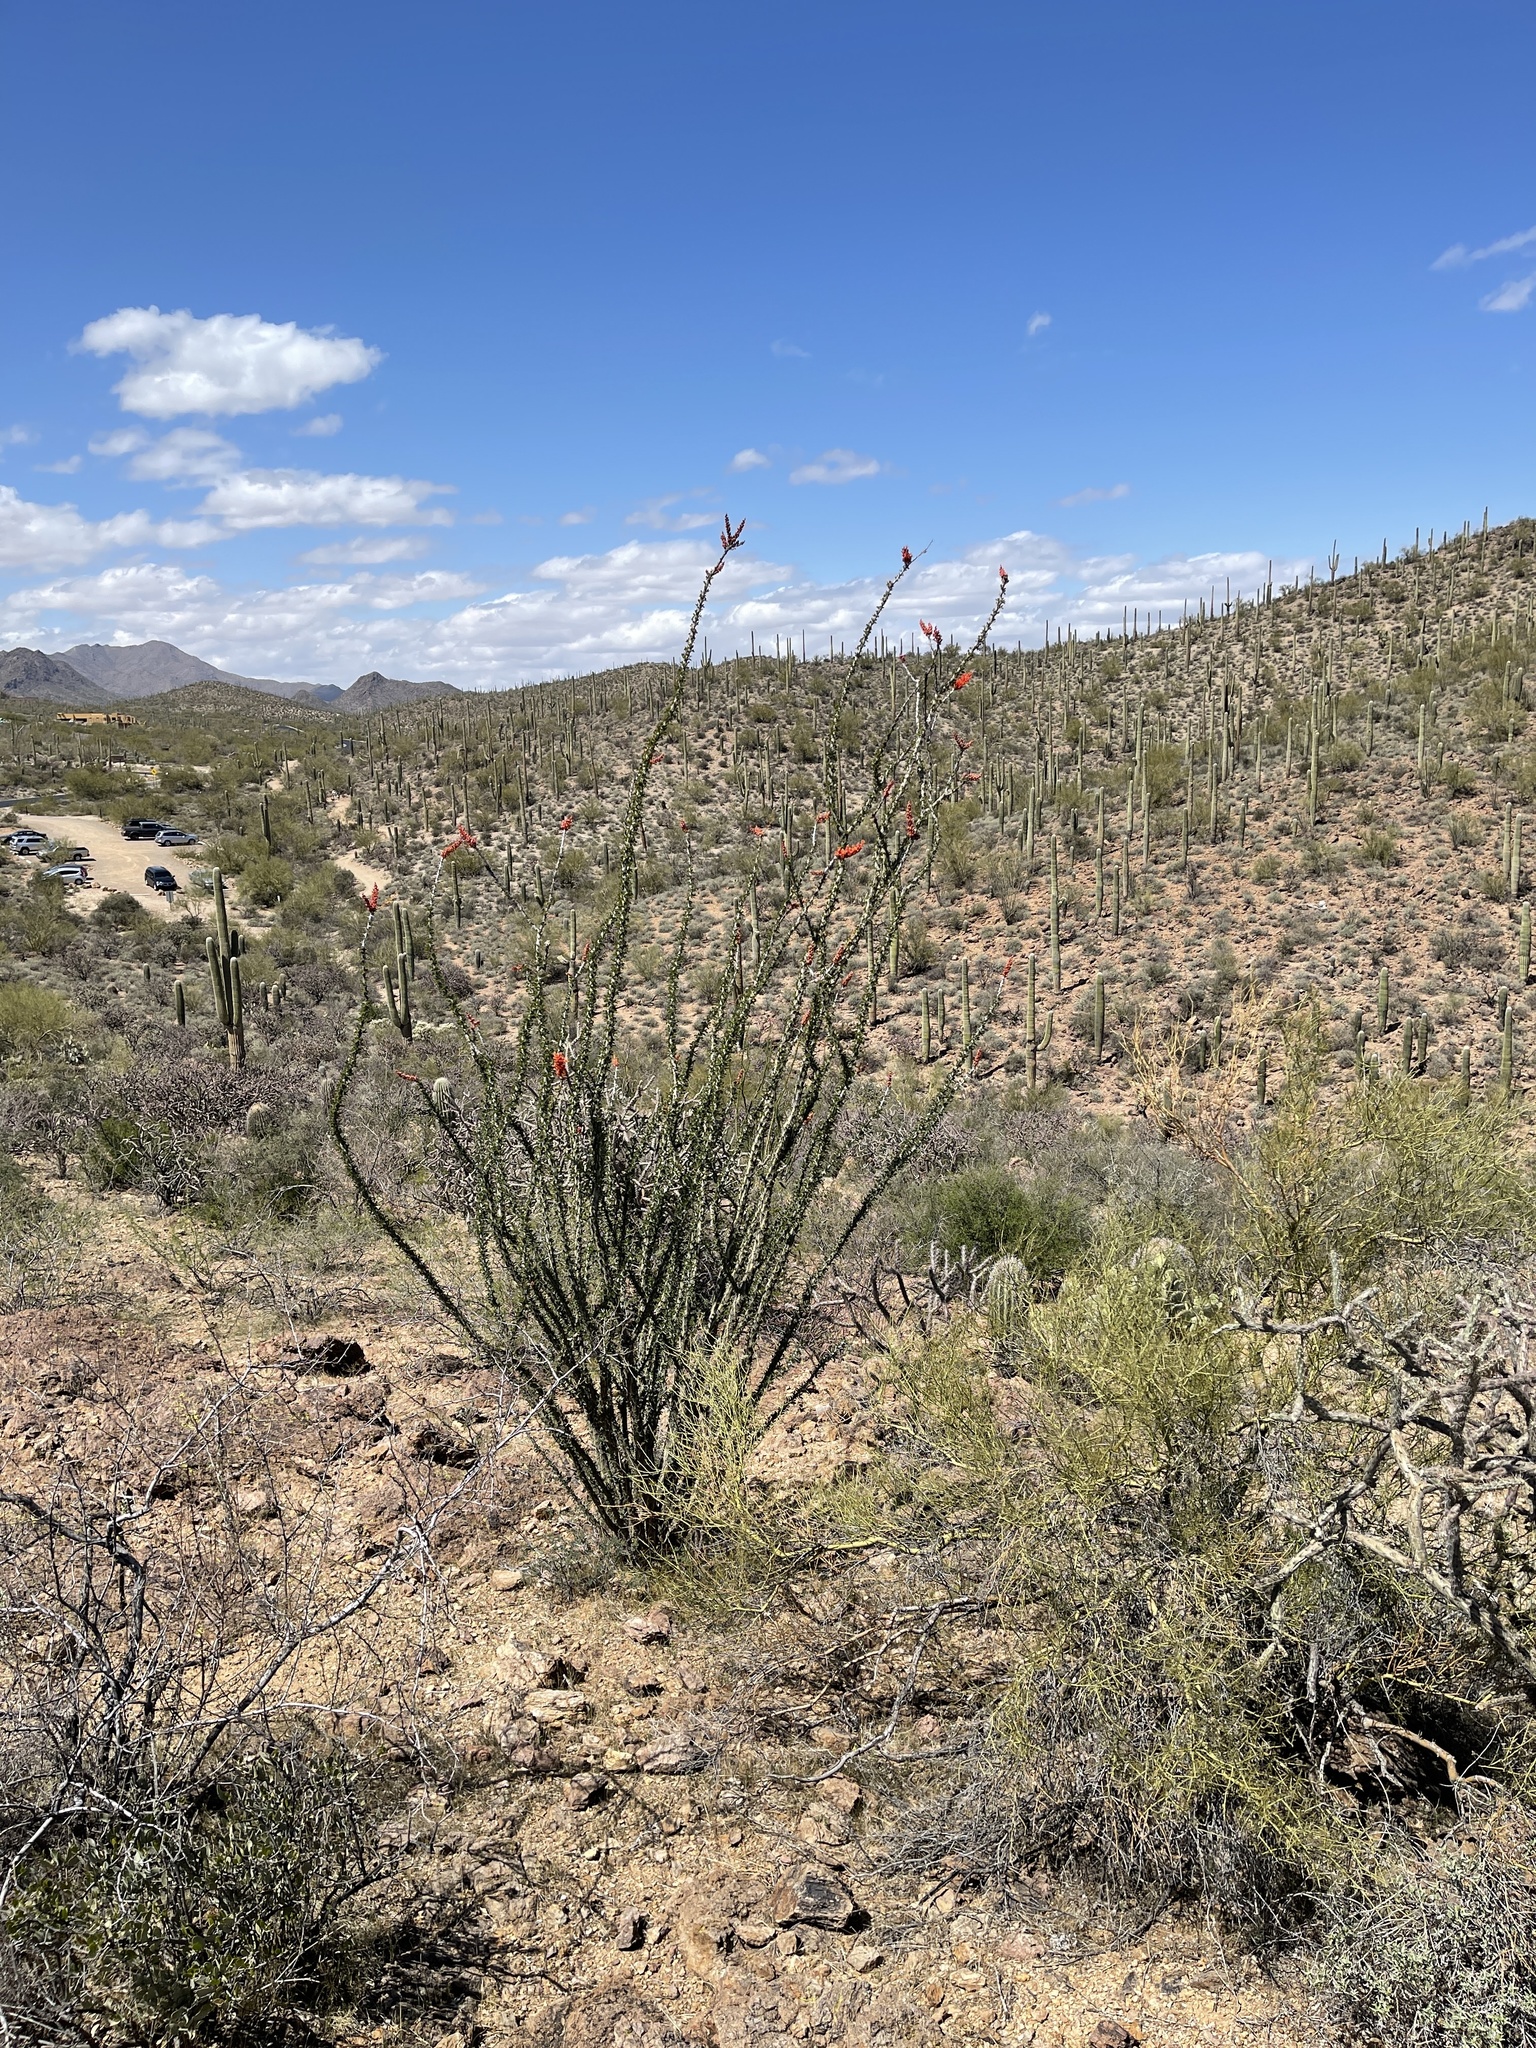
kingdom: Plantae
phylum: Tracheophyta
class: Magnoliopsida
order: Ericales
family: Fouquieriaceae
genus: Fouquieria
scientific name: Fouquieria splendens
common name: Vine-cactus
